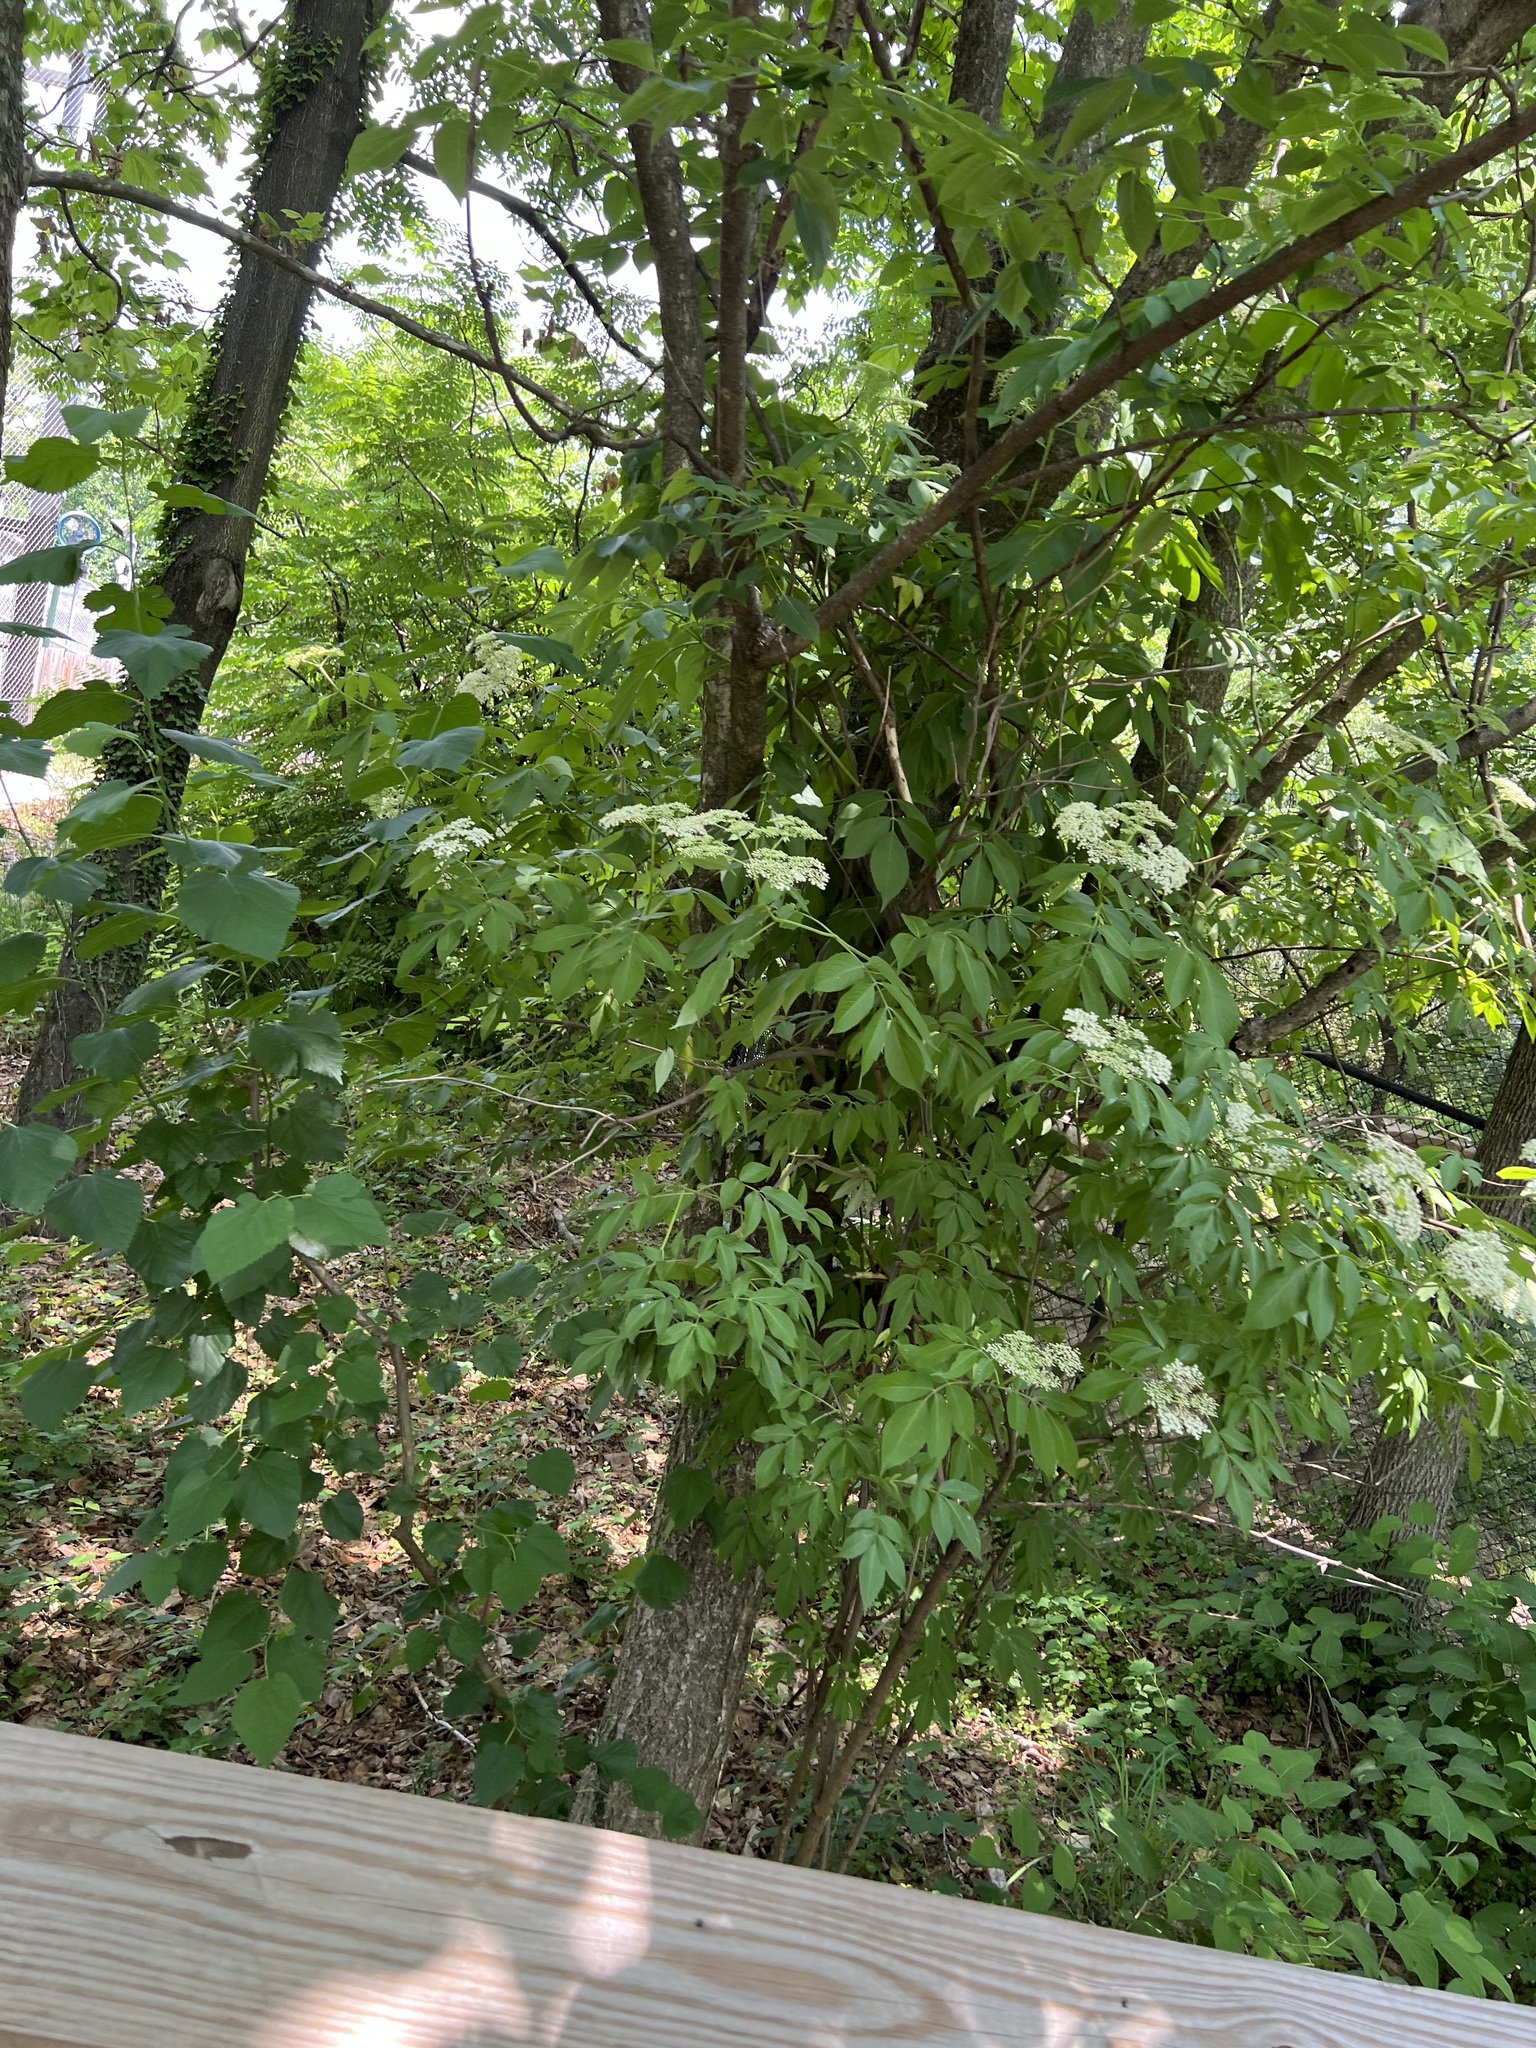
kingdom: Plantae
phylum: Tracheophyta
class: Magnoliopsida
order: Dipsacales
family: Viburnaceae
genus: Sambucus
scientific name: Sambucus canadensis
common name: American elder
